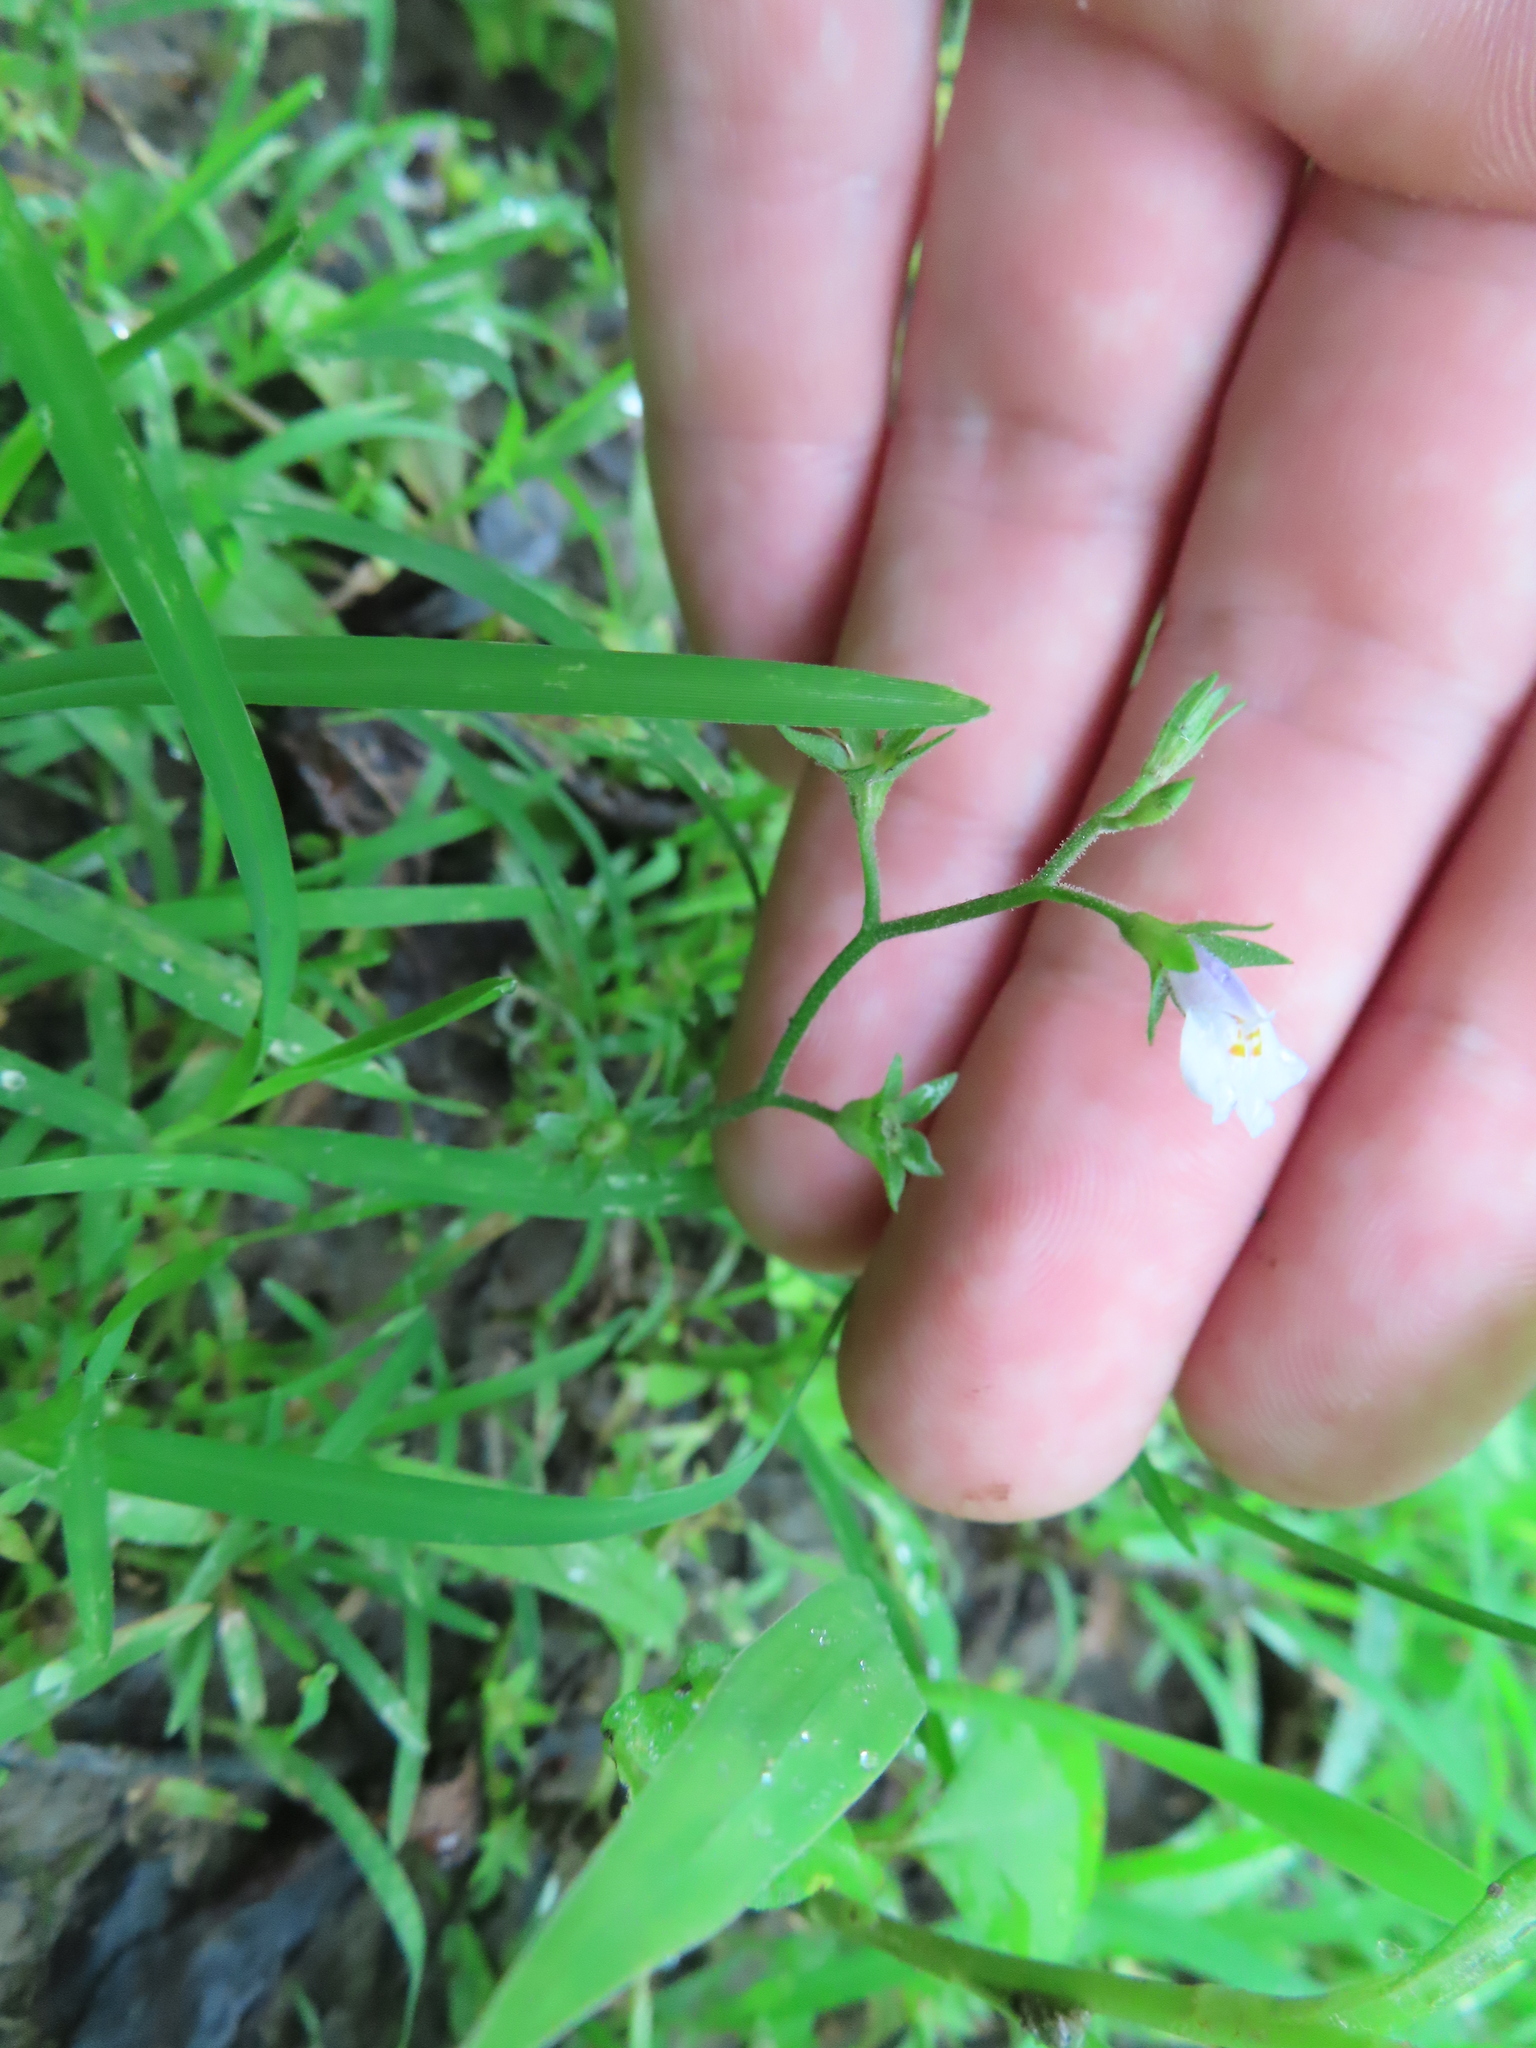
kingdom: Plantae
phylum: Tracheophyta
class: Magnoliopsida
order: Lamiales
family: Mazaceae
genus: Mazus
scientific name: Mazus pumilus
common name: Japanese mazus
